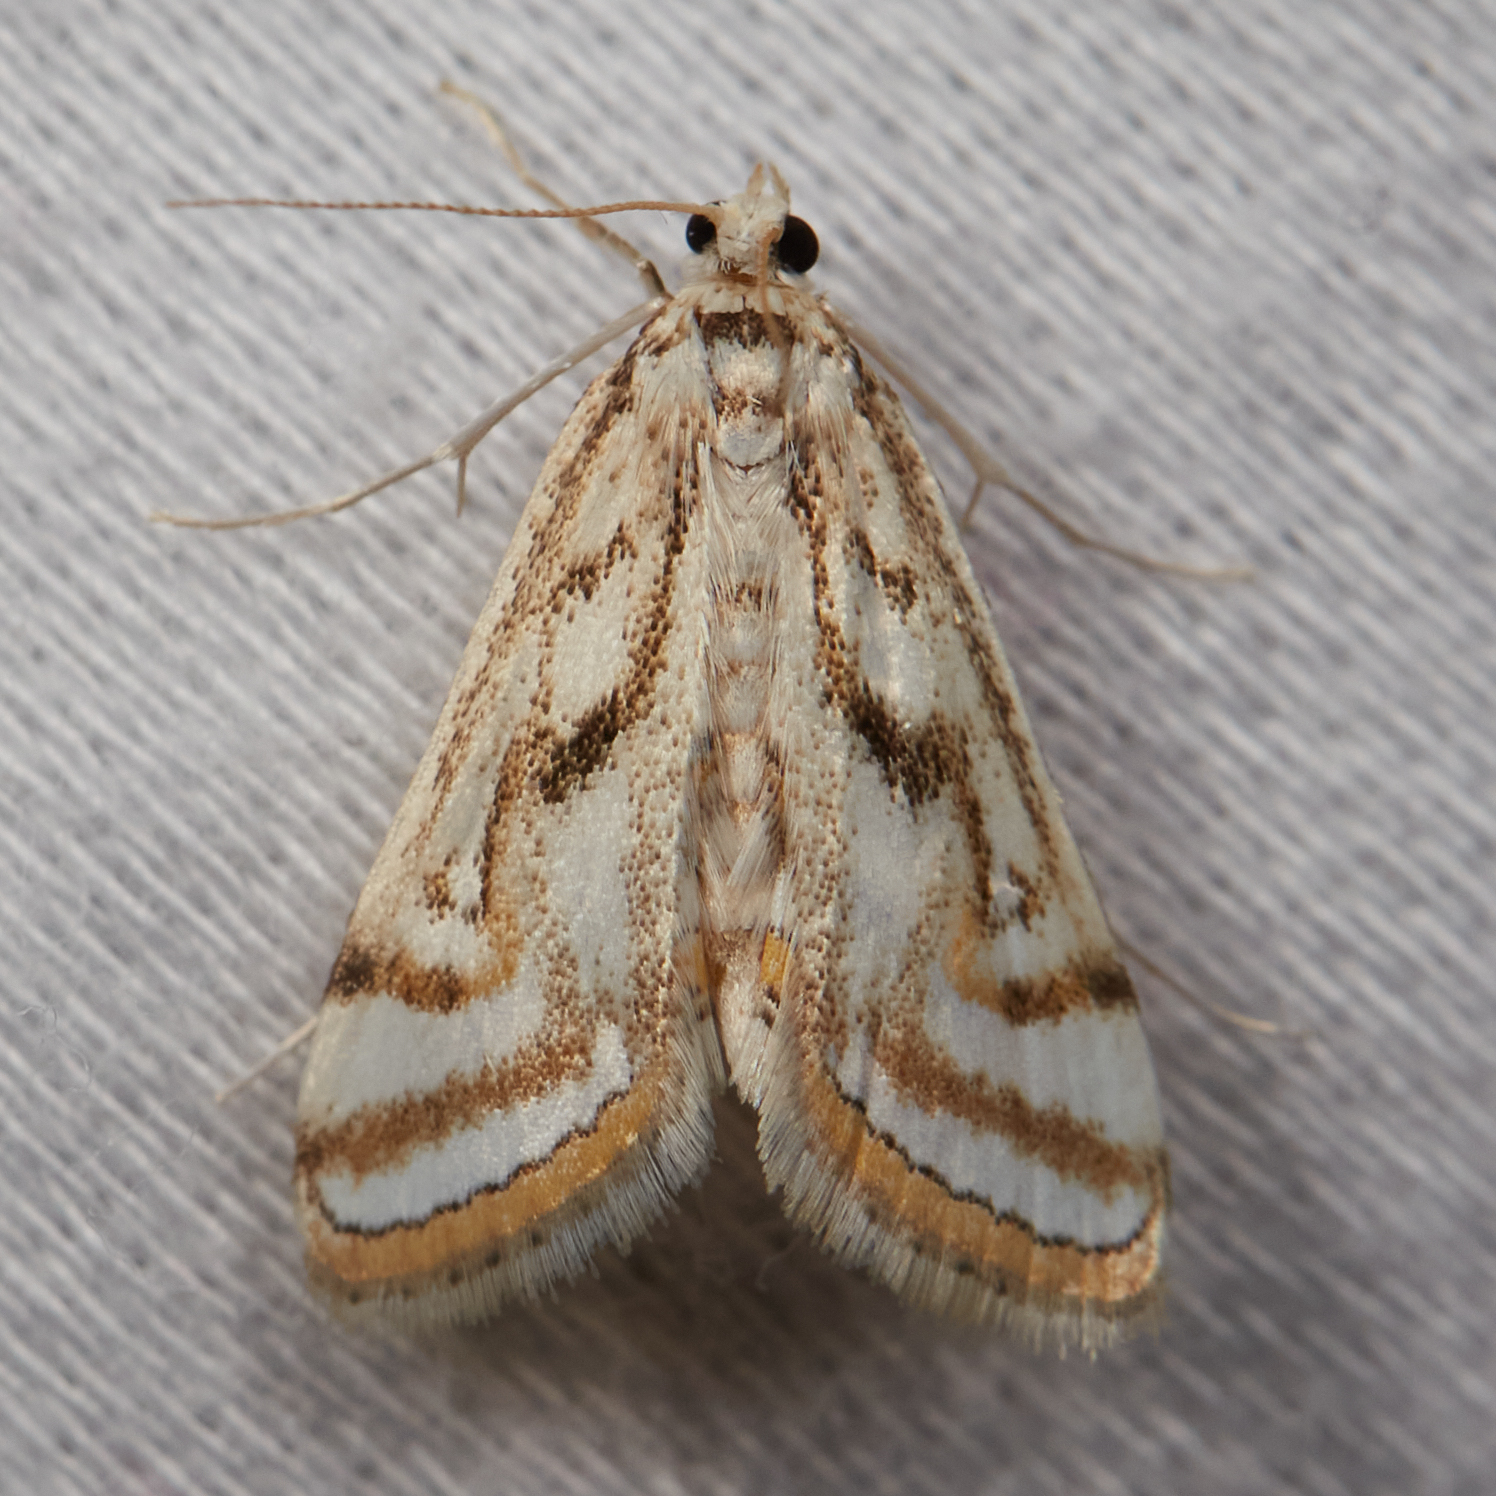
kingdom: Animalia
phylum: Arthropoda
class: Insecta
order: Lepidoptera
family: Crambidae
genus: Parapoynx
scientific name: Parapoynx badiusalis
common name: Chestnut-marked pondweed moth
